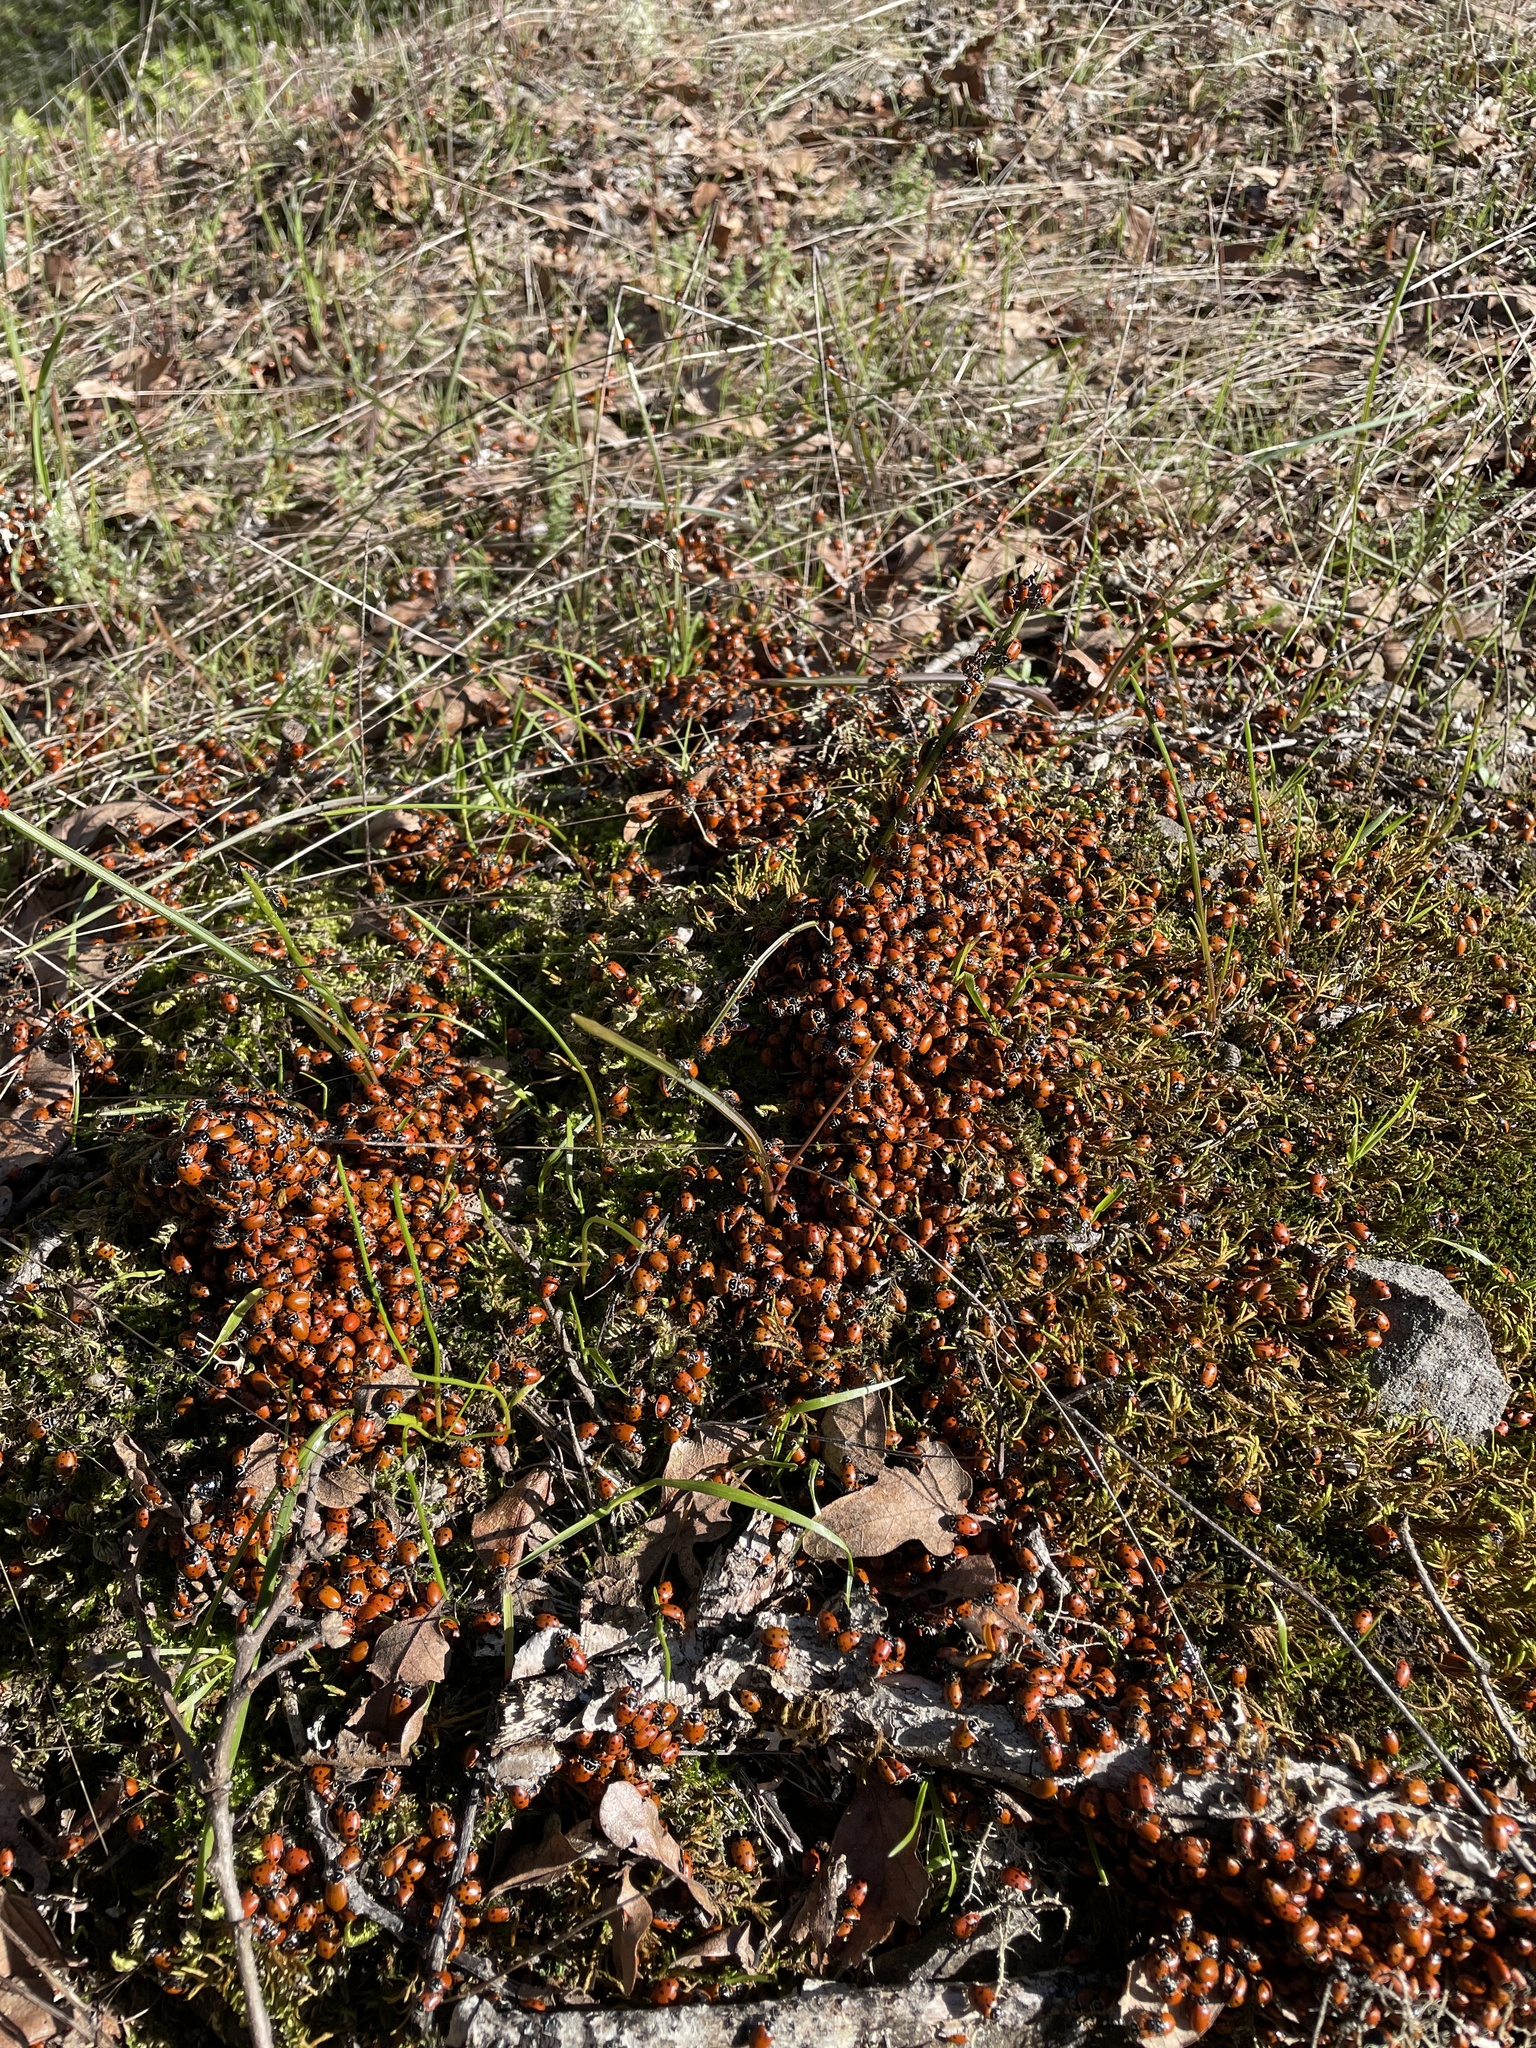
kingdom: Animalia
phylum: Arthropoda
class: Insecta
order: Coleoptera
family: Coccinellidae
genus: Hippodamia
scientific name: Hippodamia convergens
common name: Convergent lady beetle
